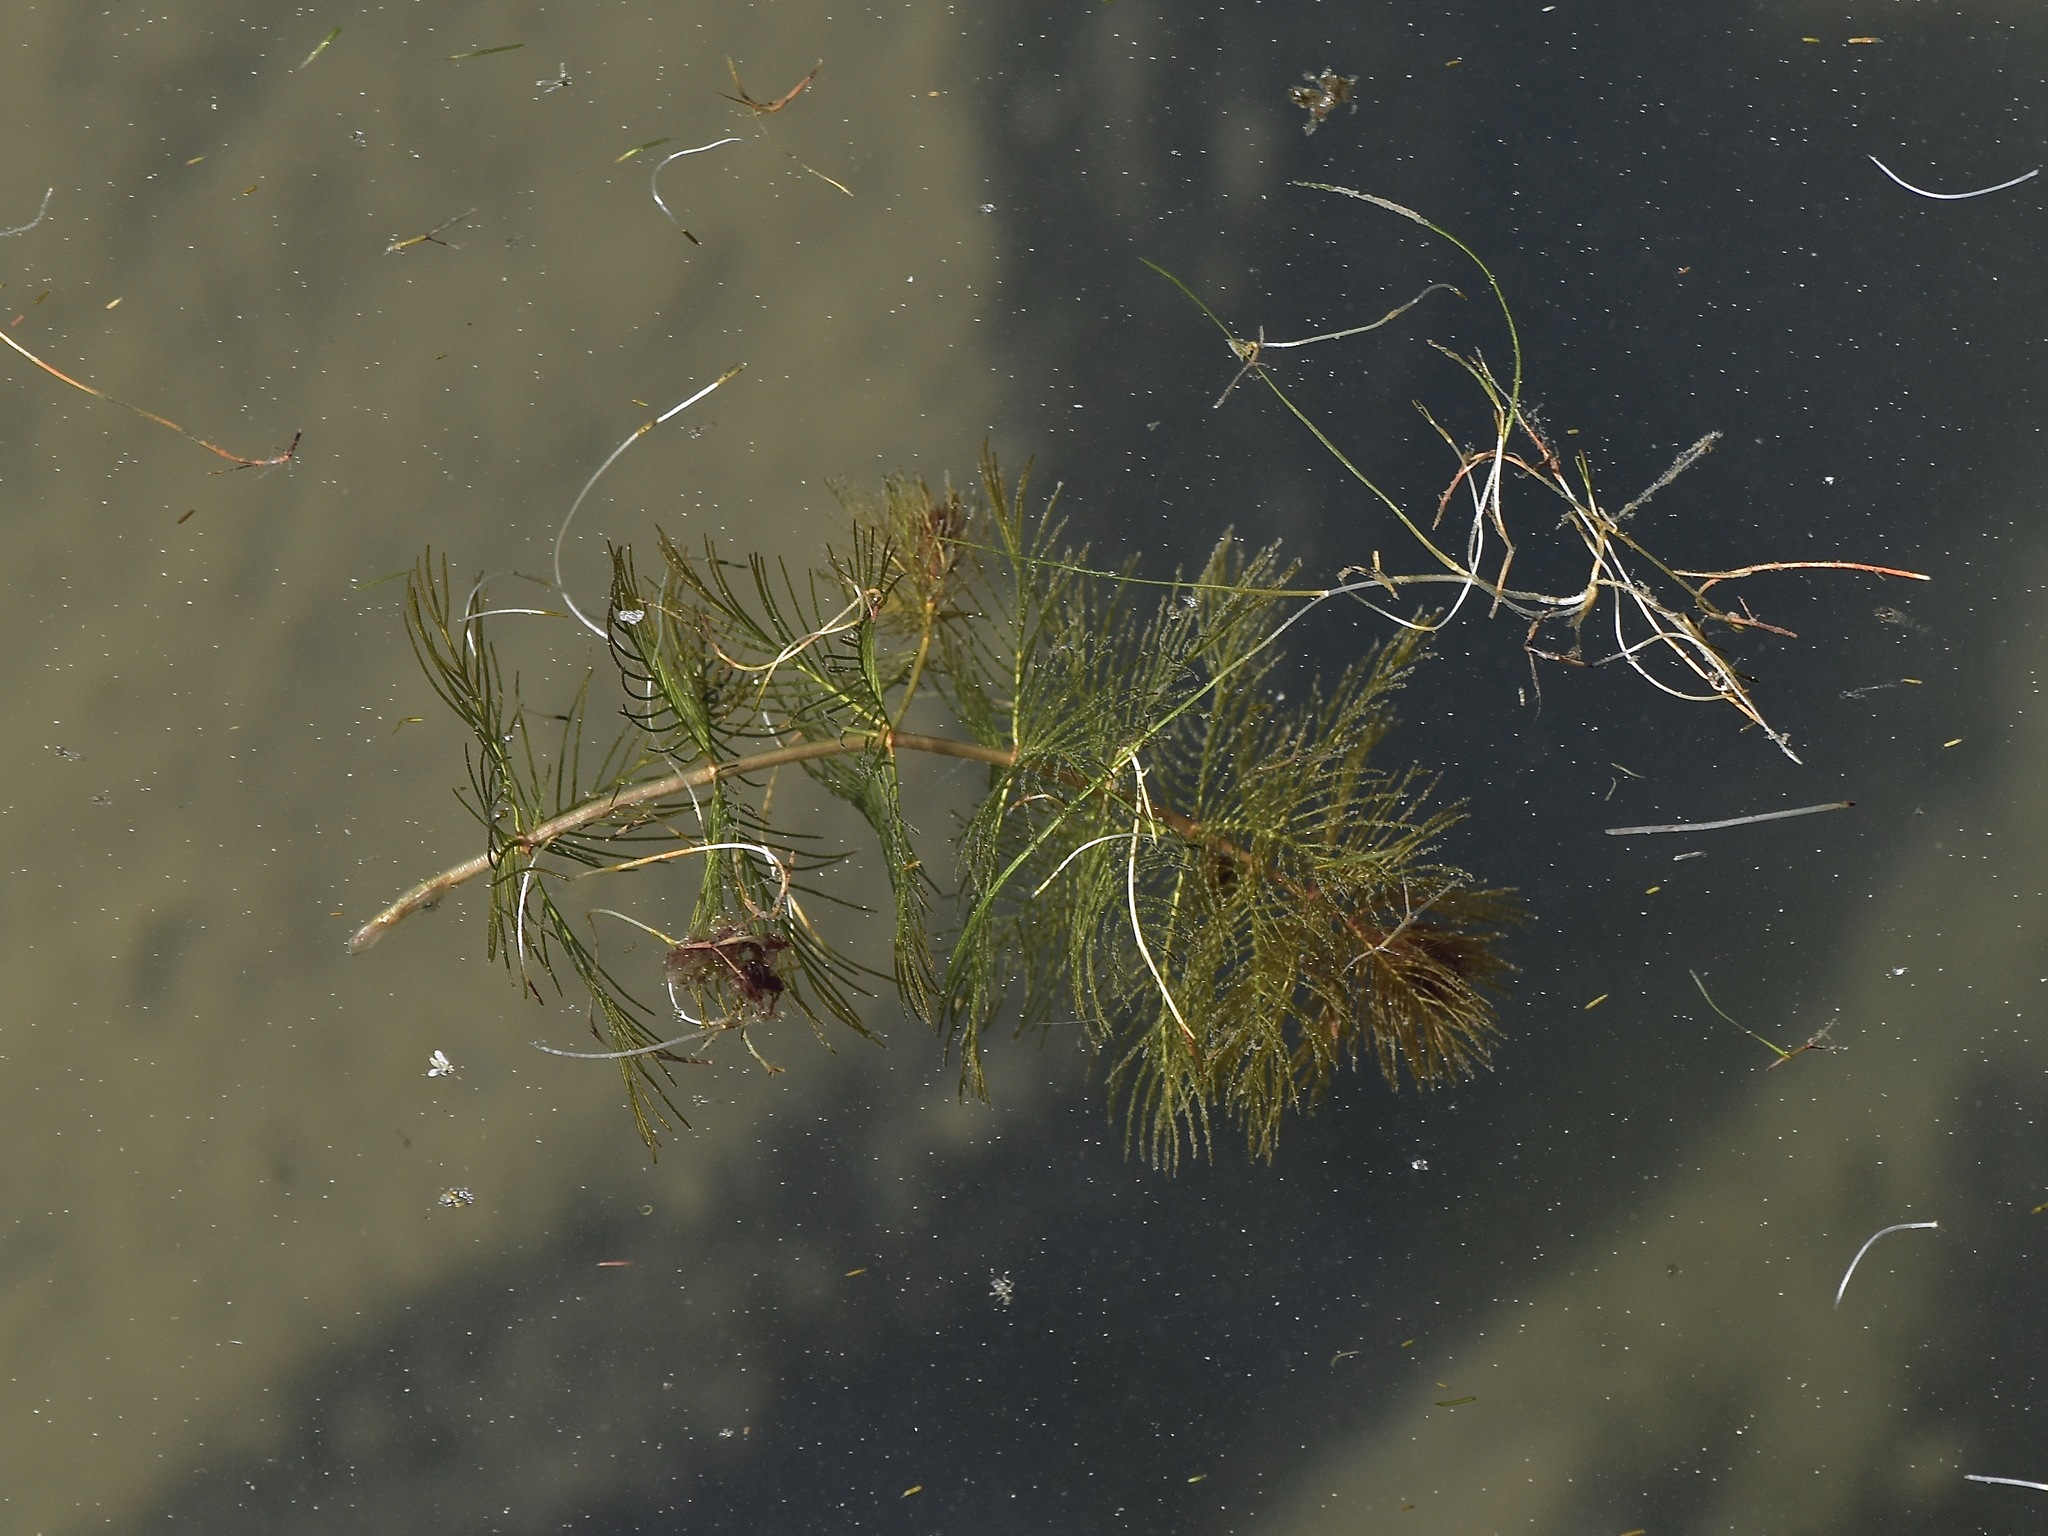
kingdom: Plantae
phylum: Tracheophyta
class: Magnoliopsida
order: Saxifragales
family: Haloragaceae
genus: Myriophyllum
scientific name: Myriophyllum sibiricum
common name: Siberian water-milfoil
